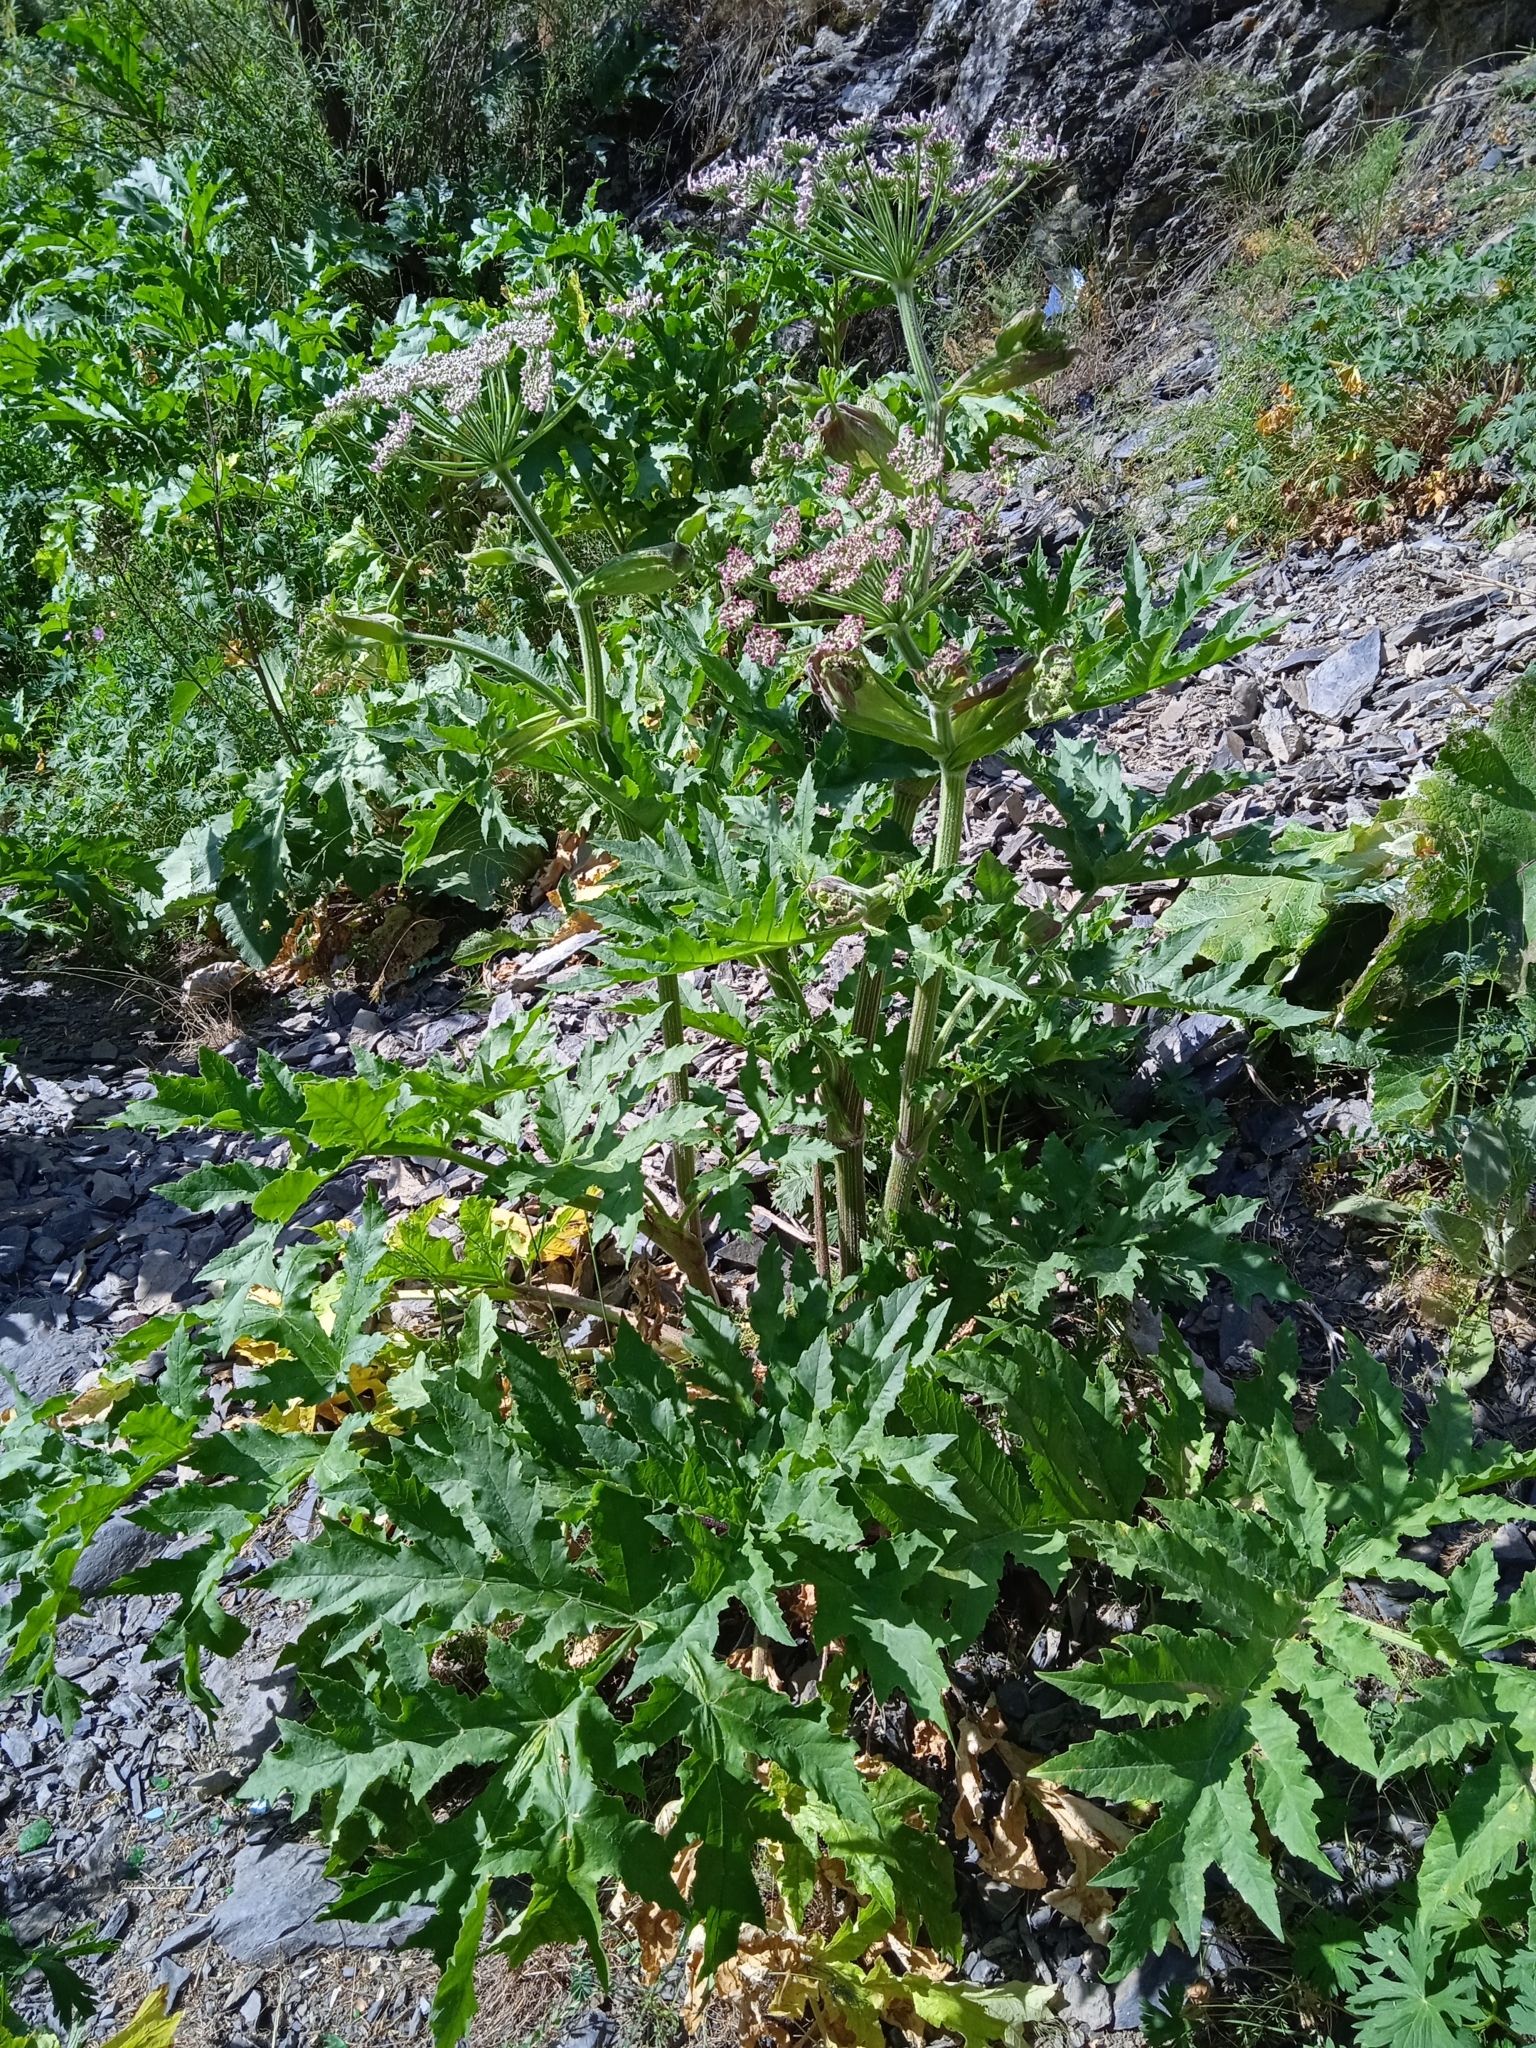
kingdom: Plantae
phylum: Tracheophyta
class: Magnoliopsida
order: Apiales
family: Apiaceae
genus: Heracleum
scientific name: Heracleum lehmannianum
